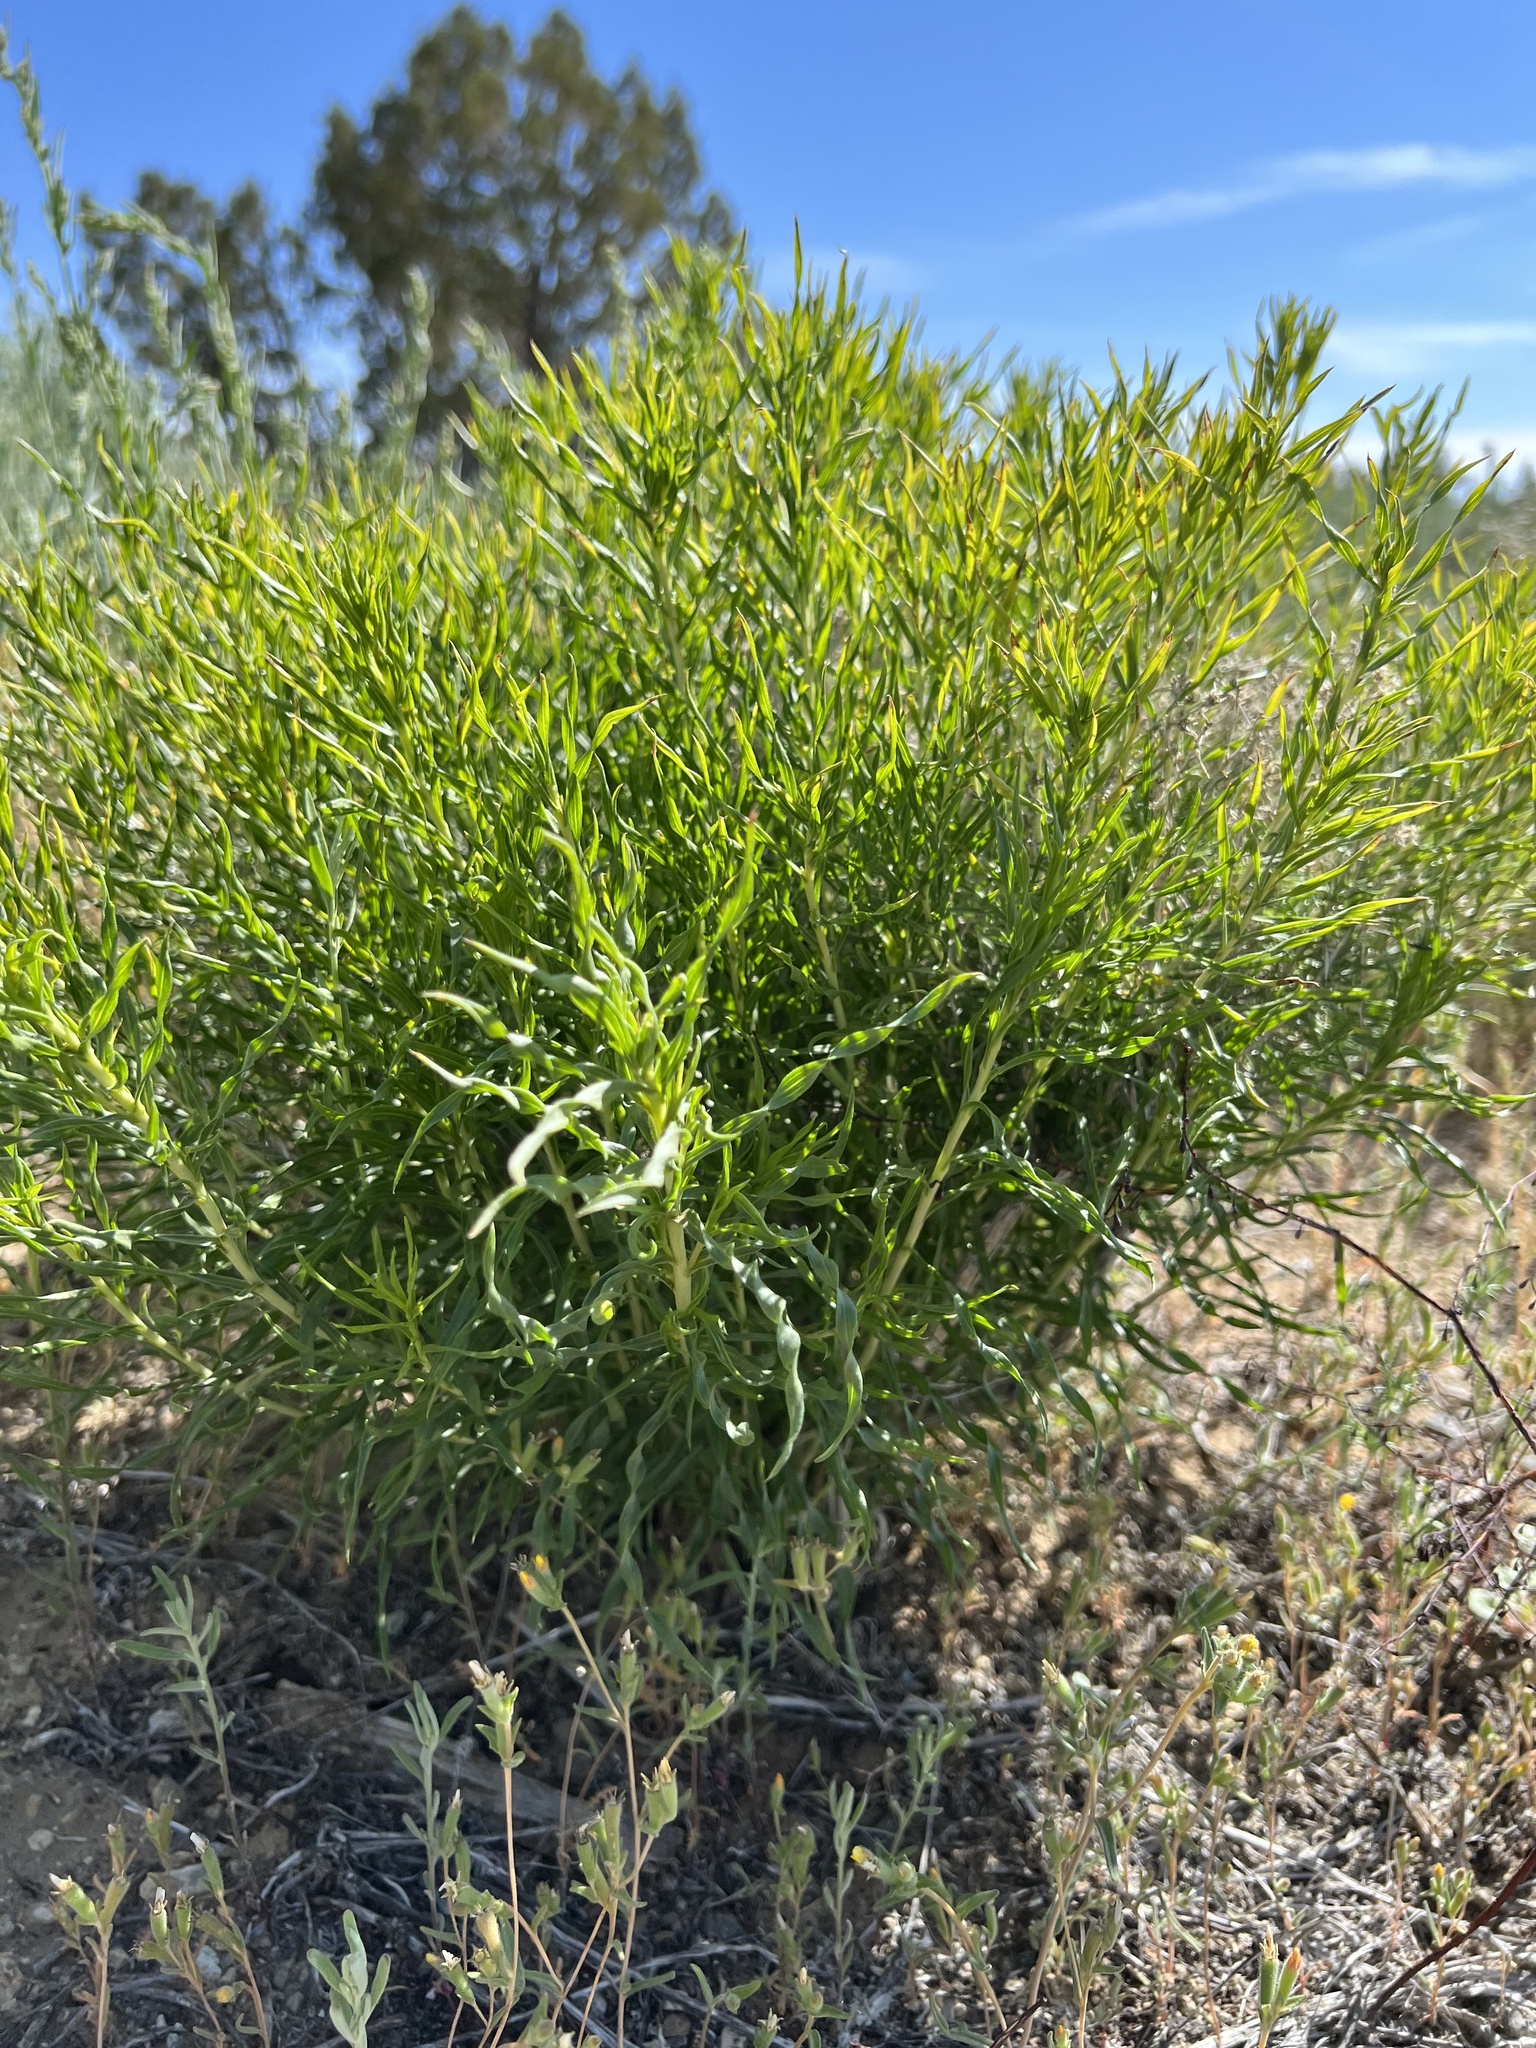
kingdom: Plantae
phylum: Tracheophyta
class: Magnoliopsida
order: Asterales
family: Asteraceae
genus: Chrysothamnus
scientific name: Chrysothamnus viscidiflorus
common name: Yellow rabbitbrush
